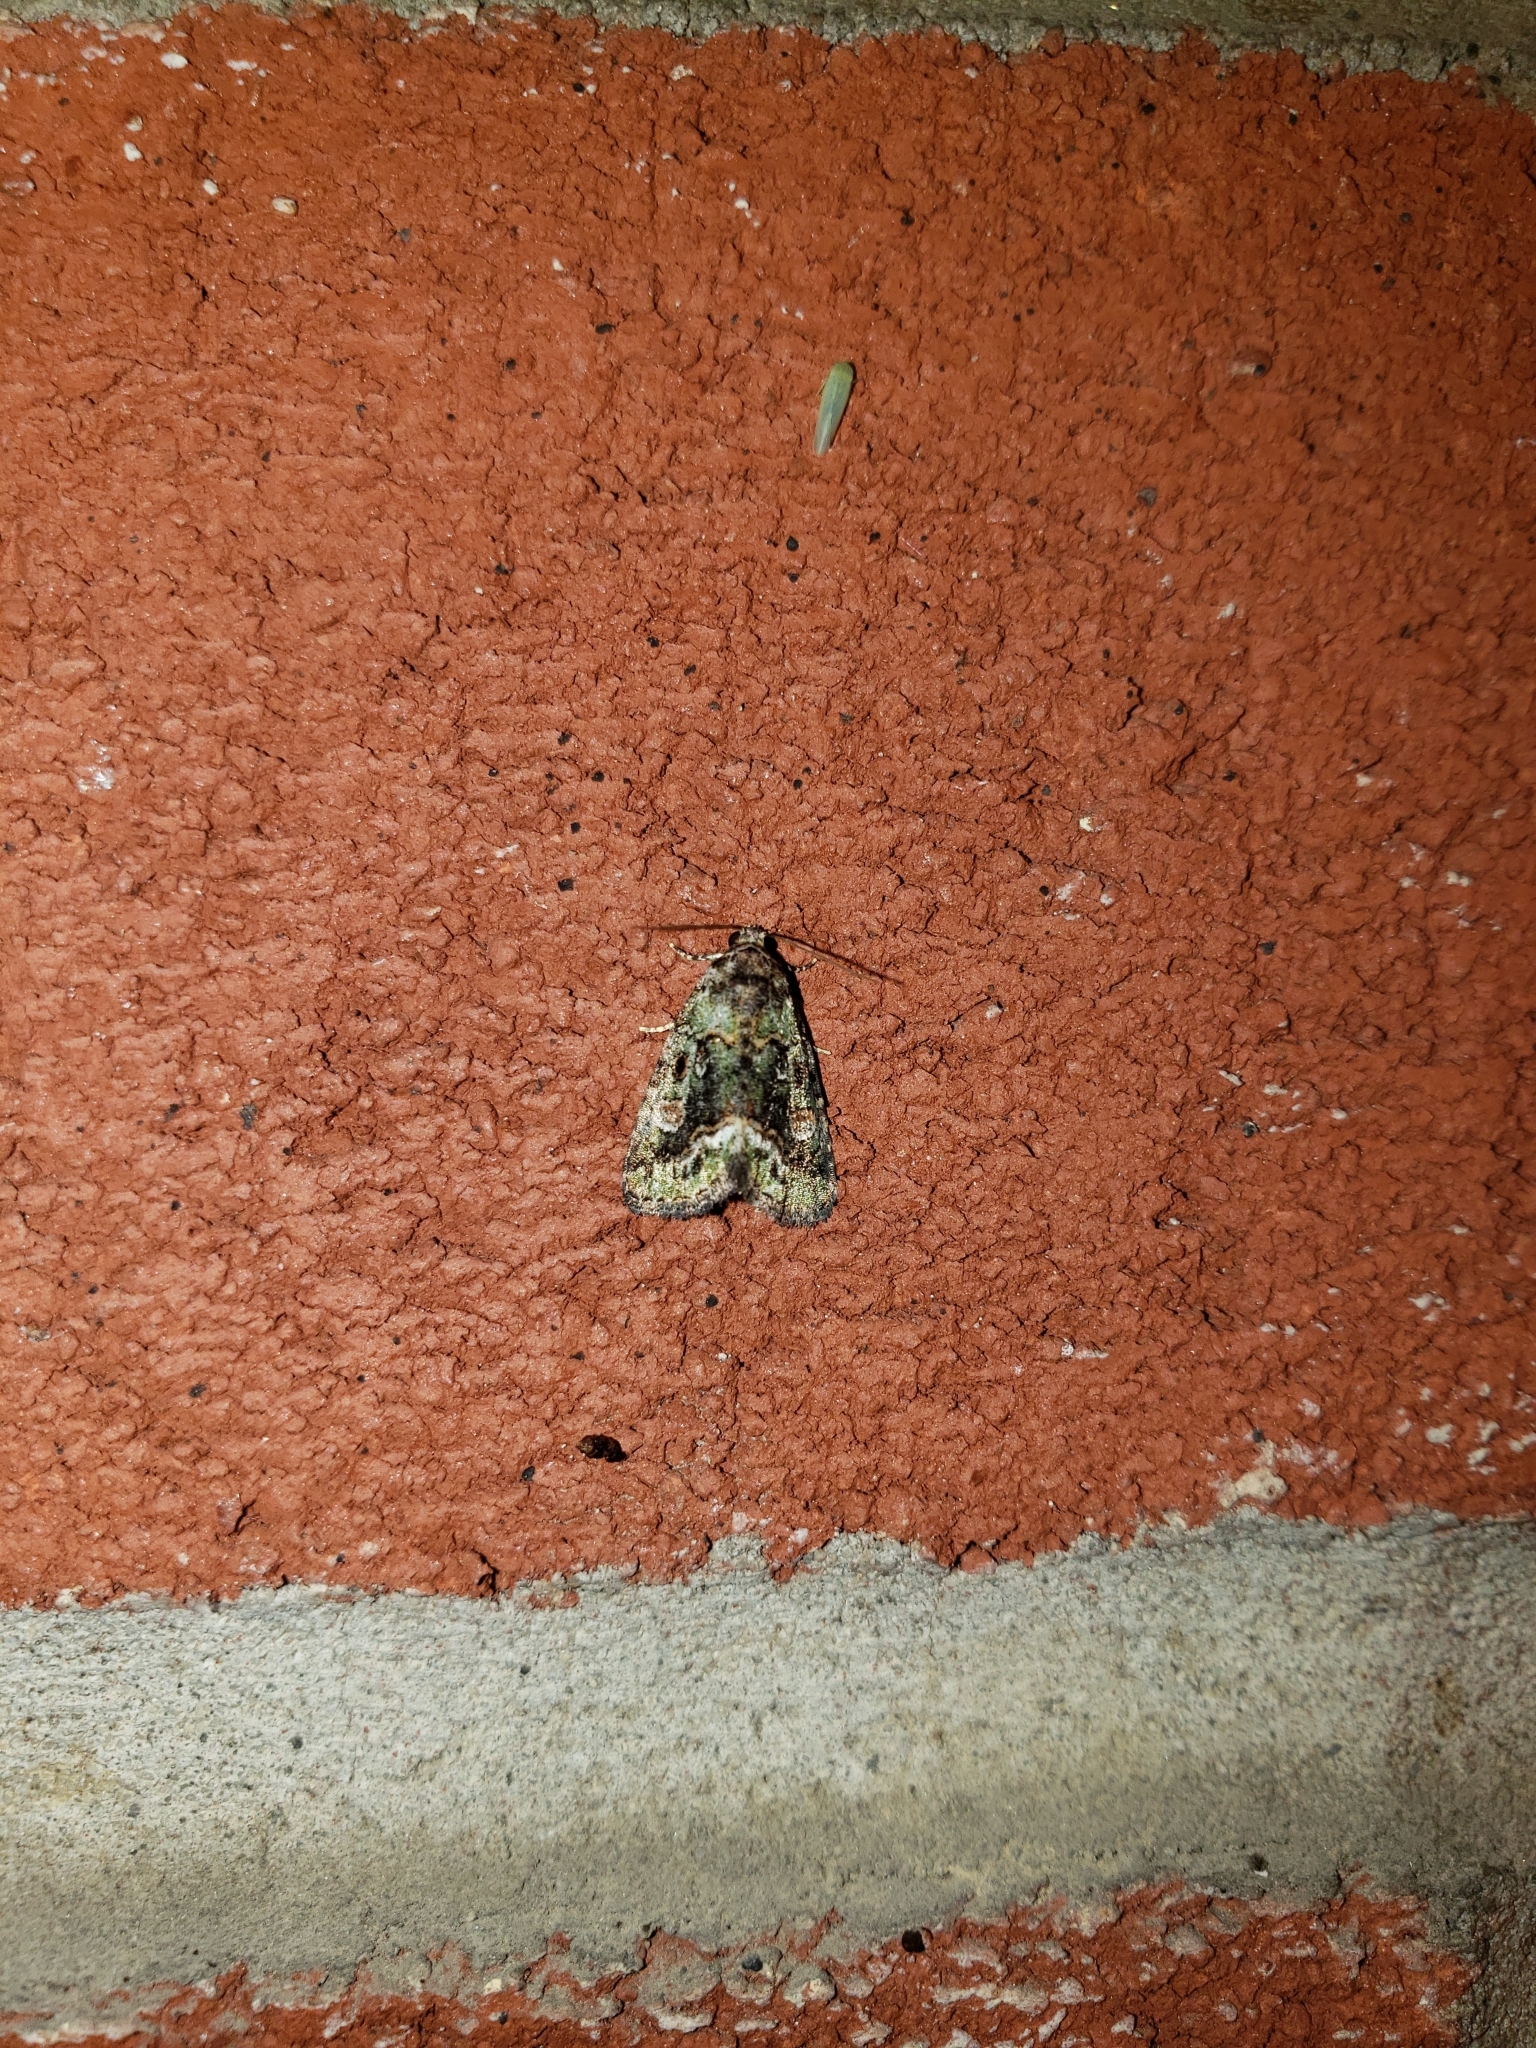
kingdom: Animalia
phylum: Arthropoda
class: Insecta
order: Lepidoptera
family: Noctuidae
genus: Lithacodia
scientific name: Lithacodia musta
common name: Small mossy glyph
